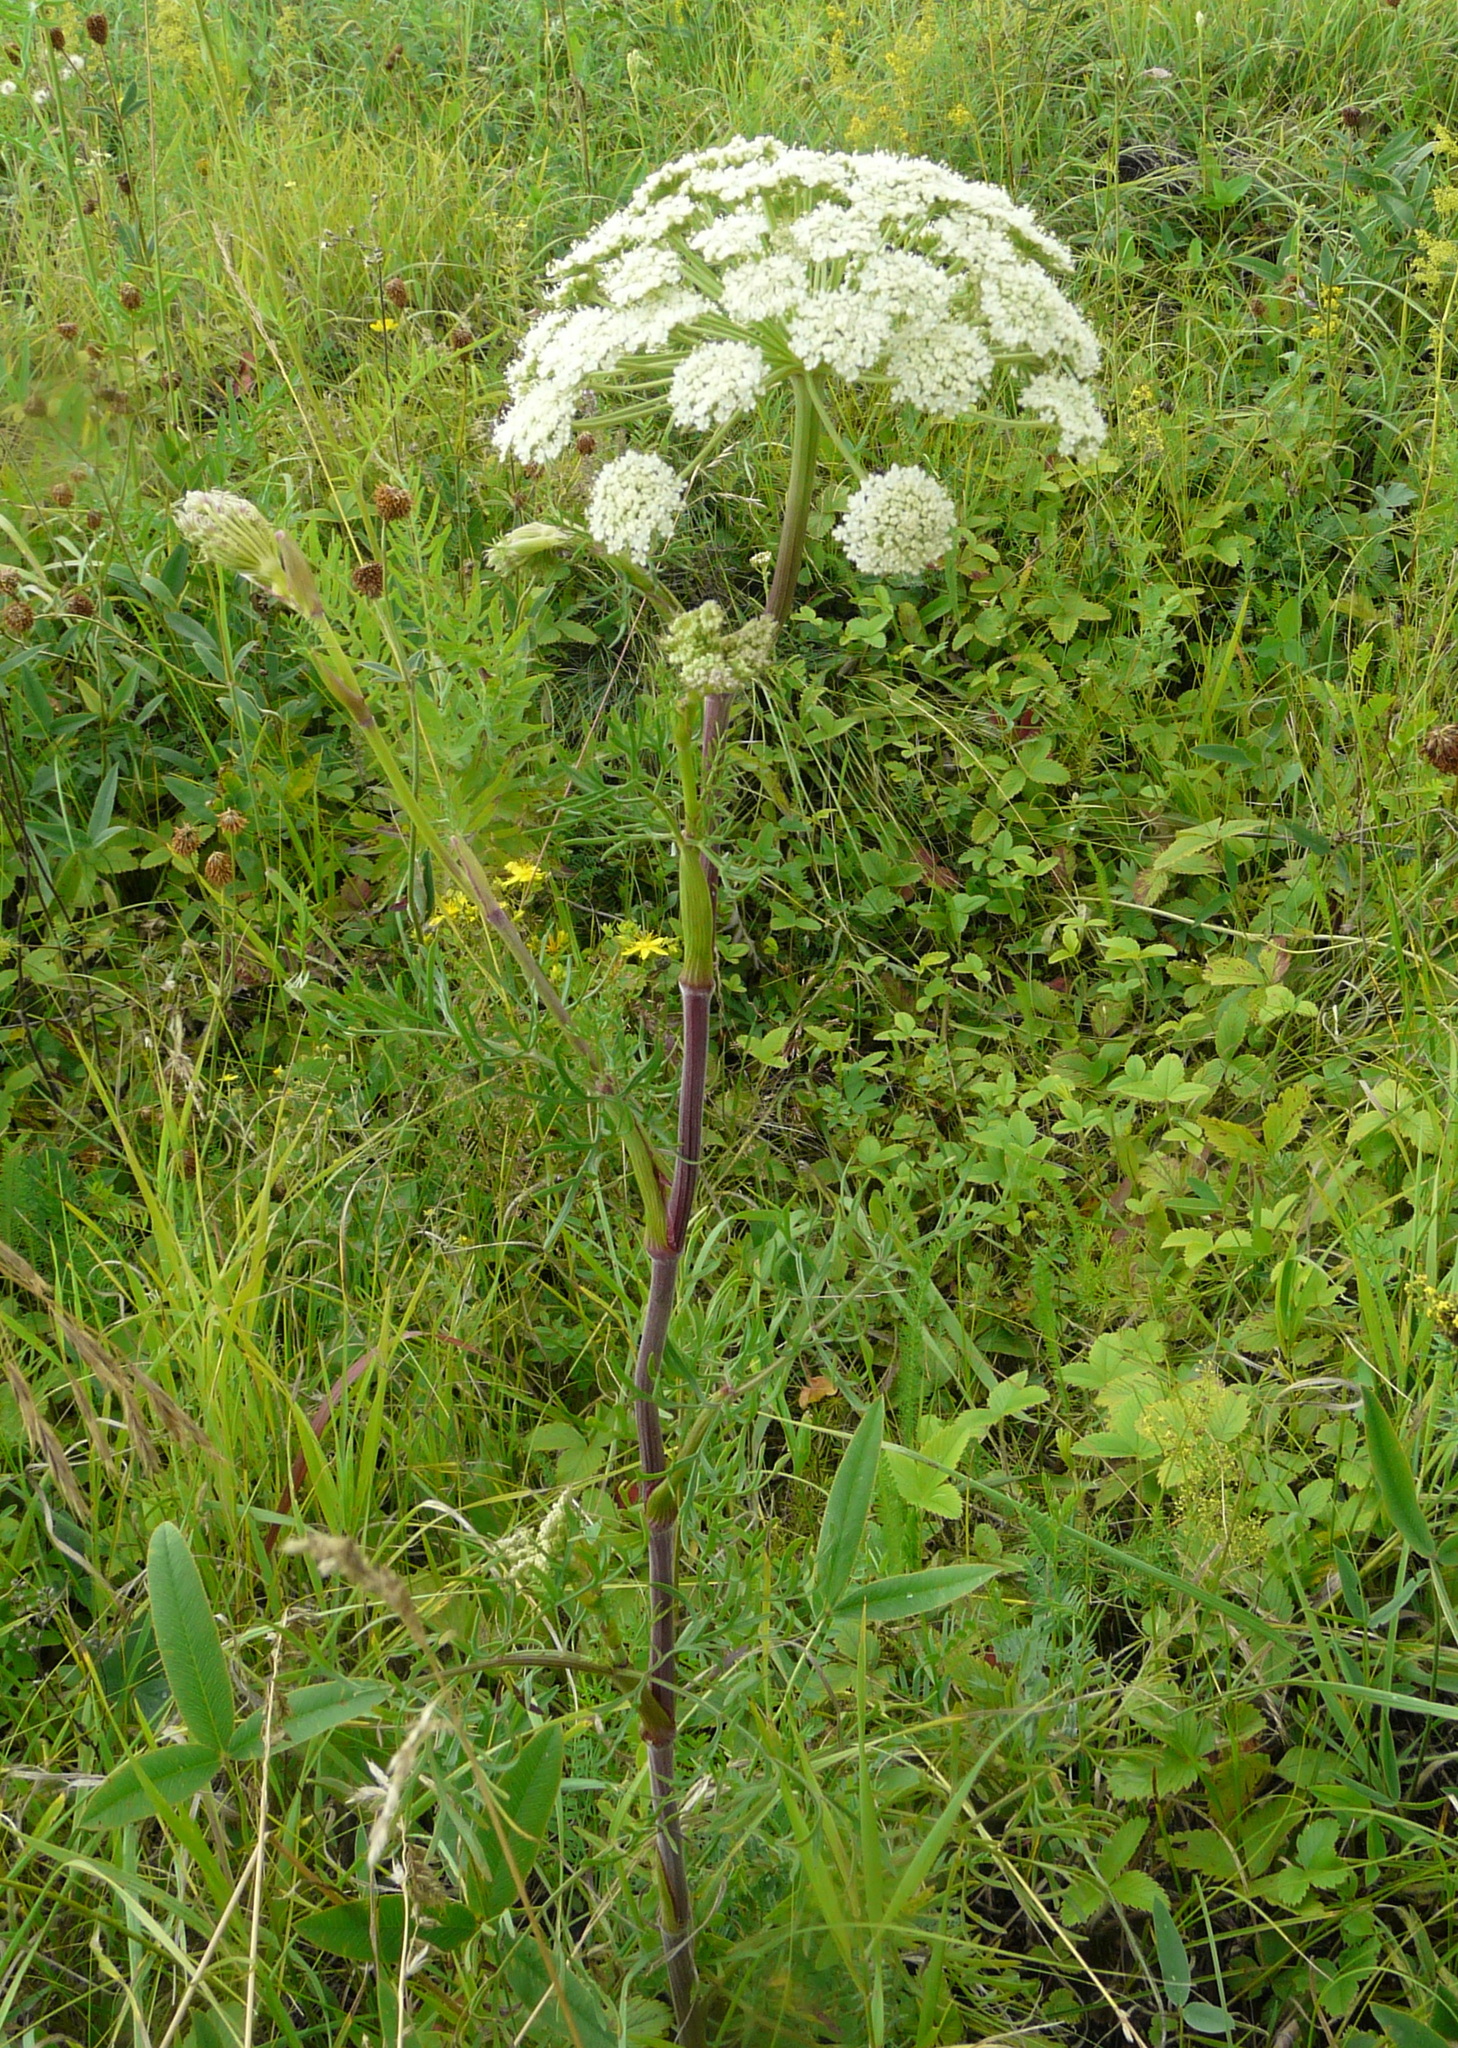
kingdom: Plantae
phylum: Tracheophyta
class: Magnoliopsida
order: Apiales
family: Apiaceae
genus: Seseli
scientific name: Seseli annuum
